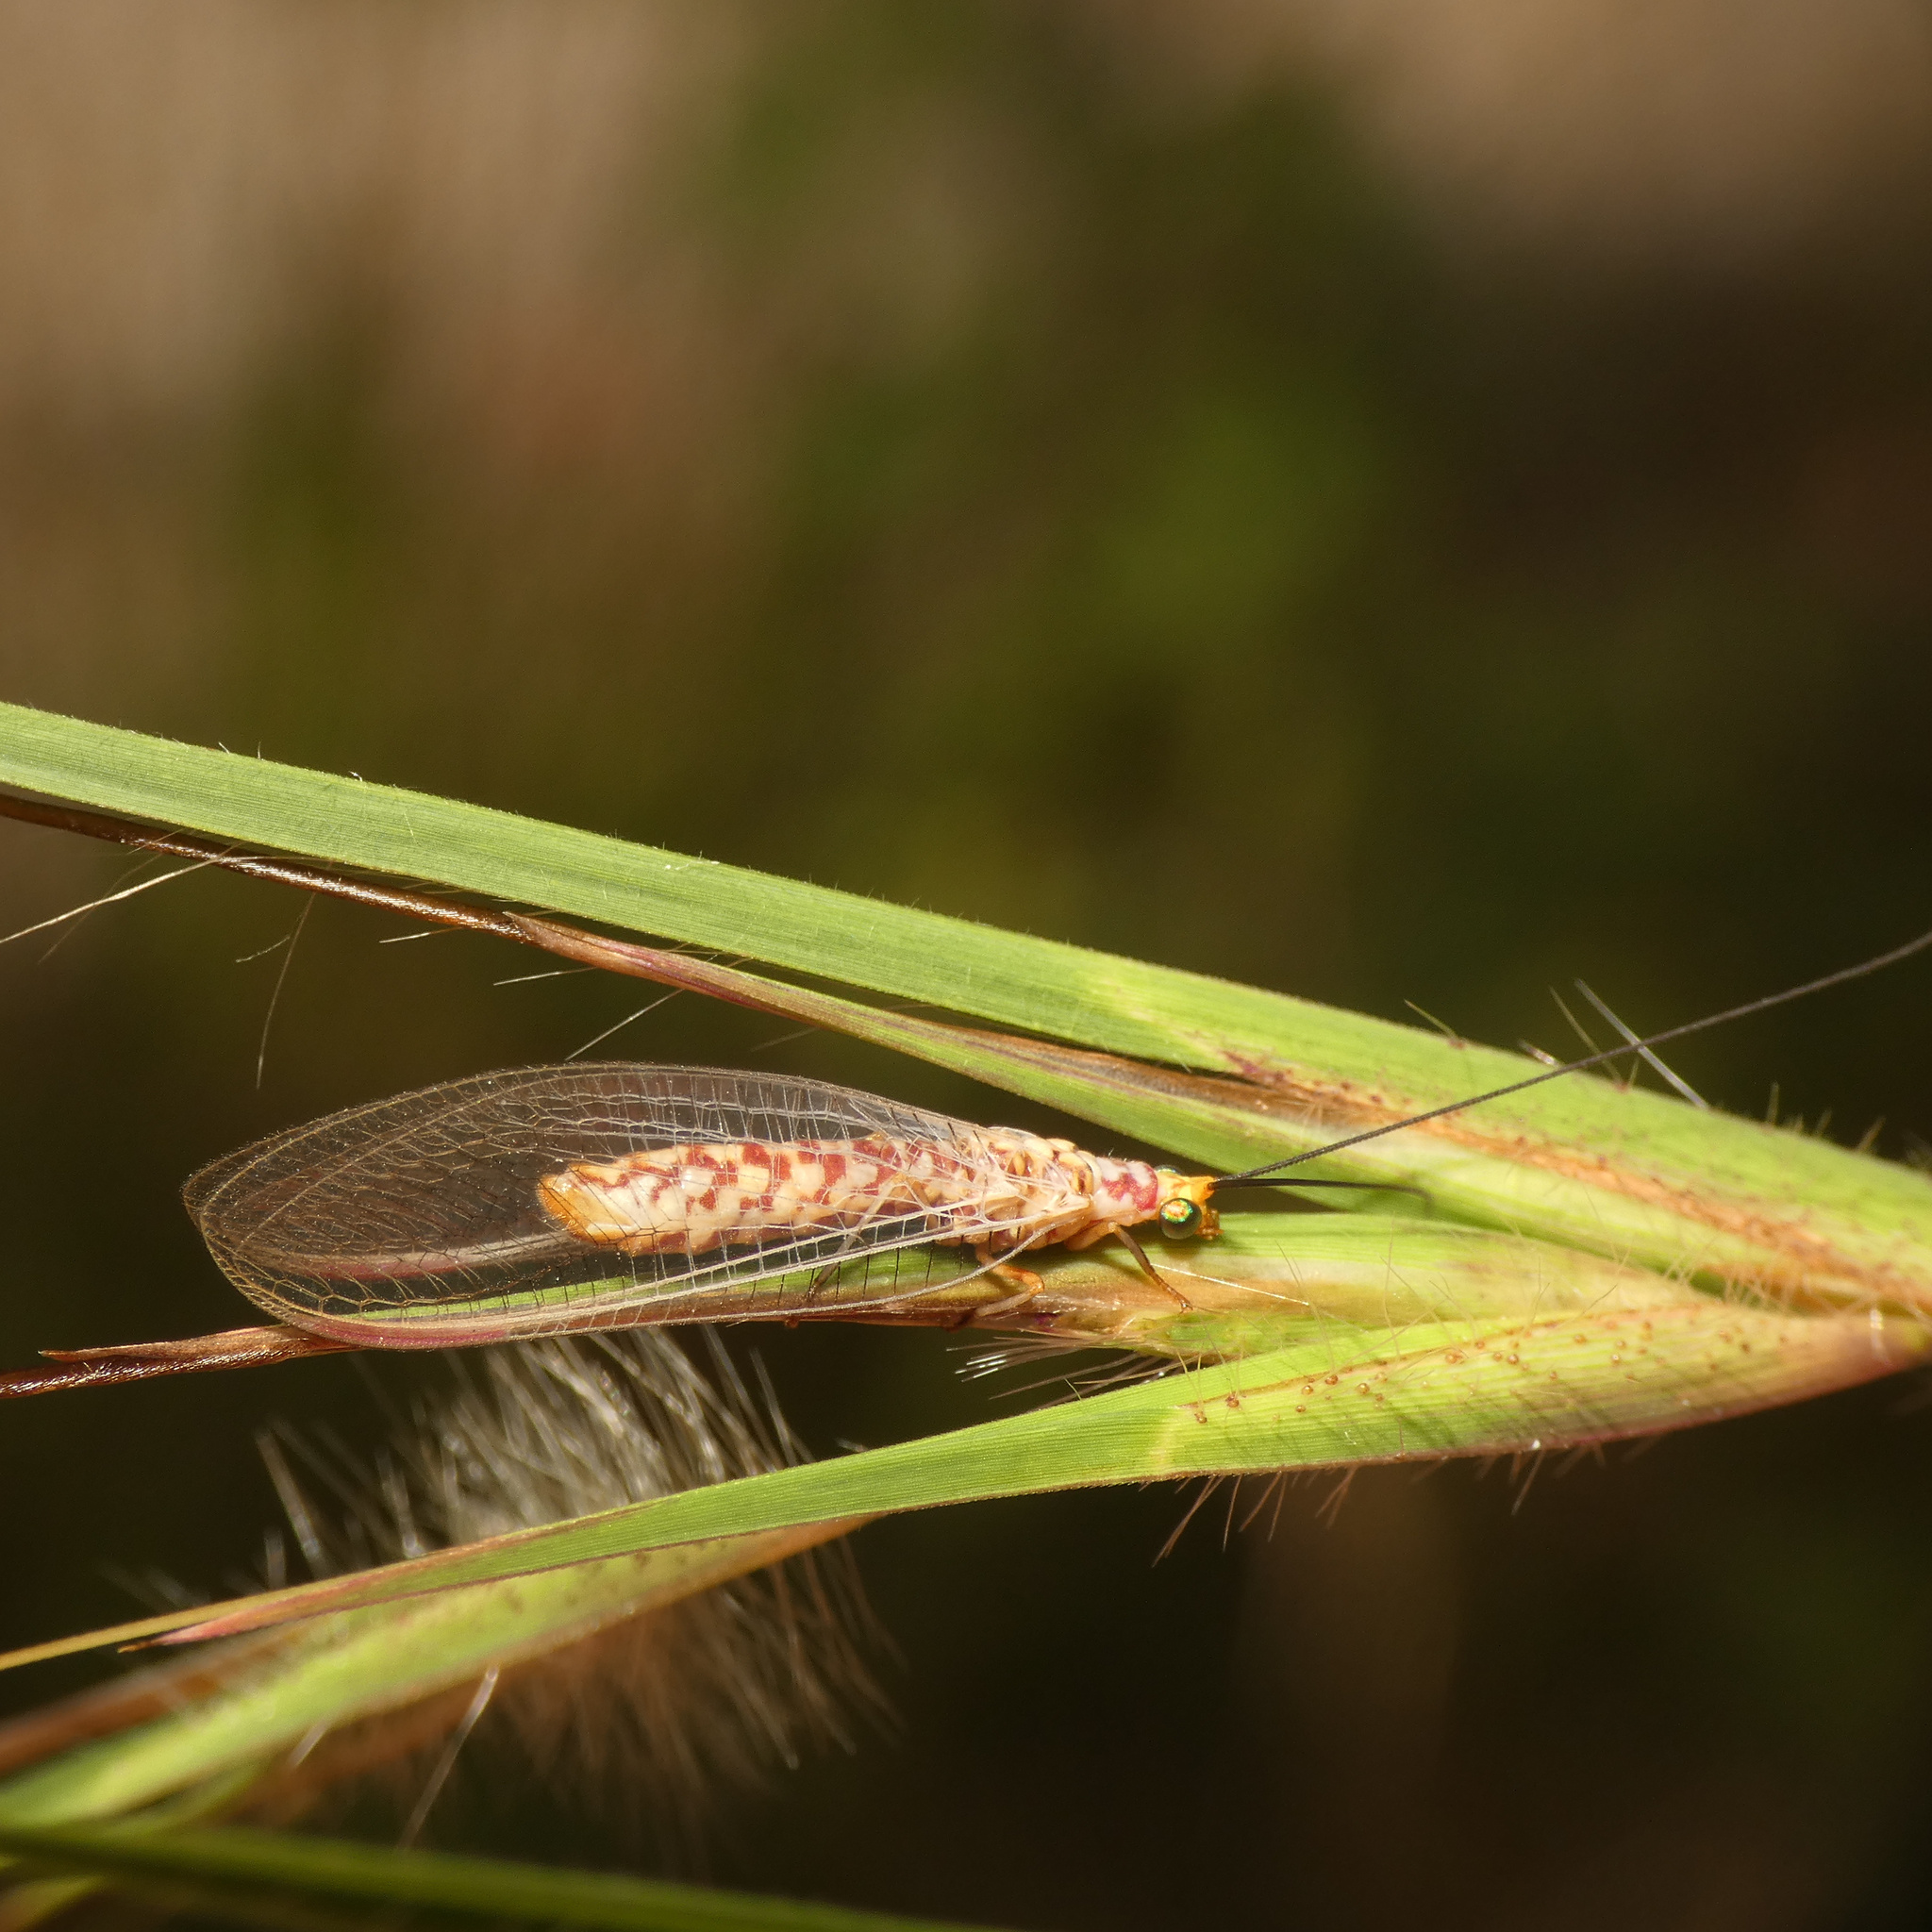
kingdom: Animalia
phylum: Arthropoda
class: Insecta
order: Neuroptera
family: Chrysopidae
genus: Italochrysa
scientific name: Italochrysa impar
